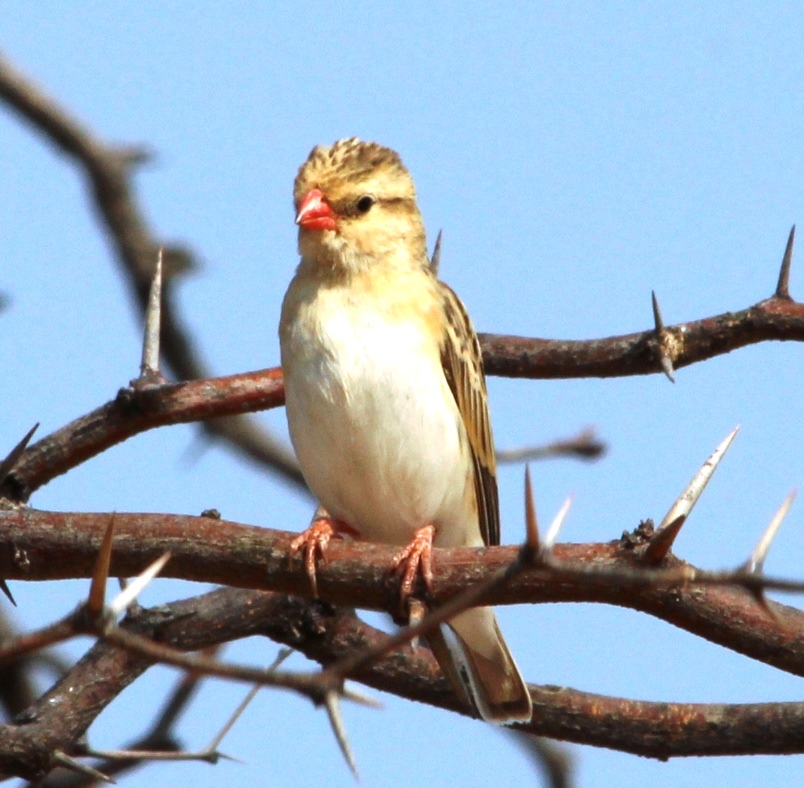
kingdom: Animalia
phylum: Chordata
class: Aves
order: Passeriformes
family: Viduidae
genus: Vidua
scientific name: Vidua regia
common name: Shaft-tailed whydah
